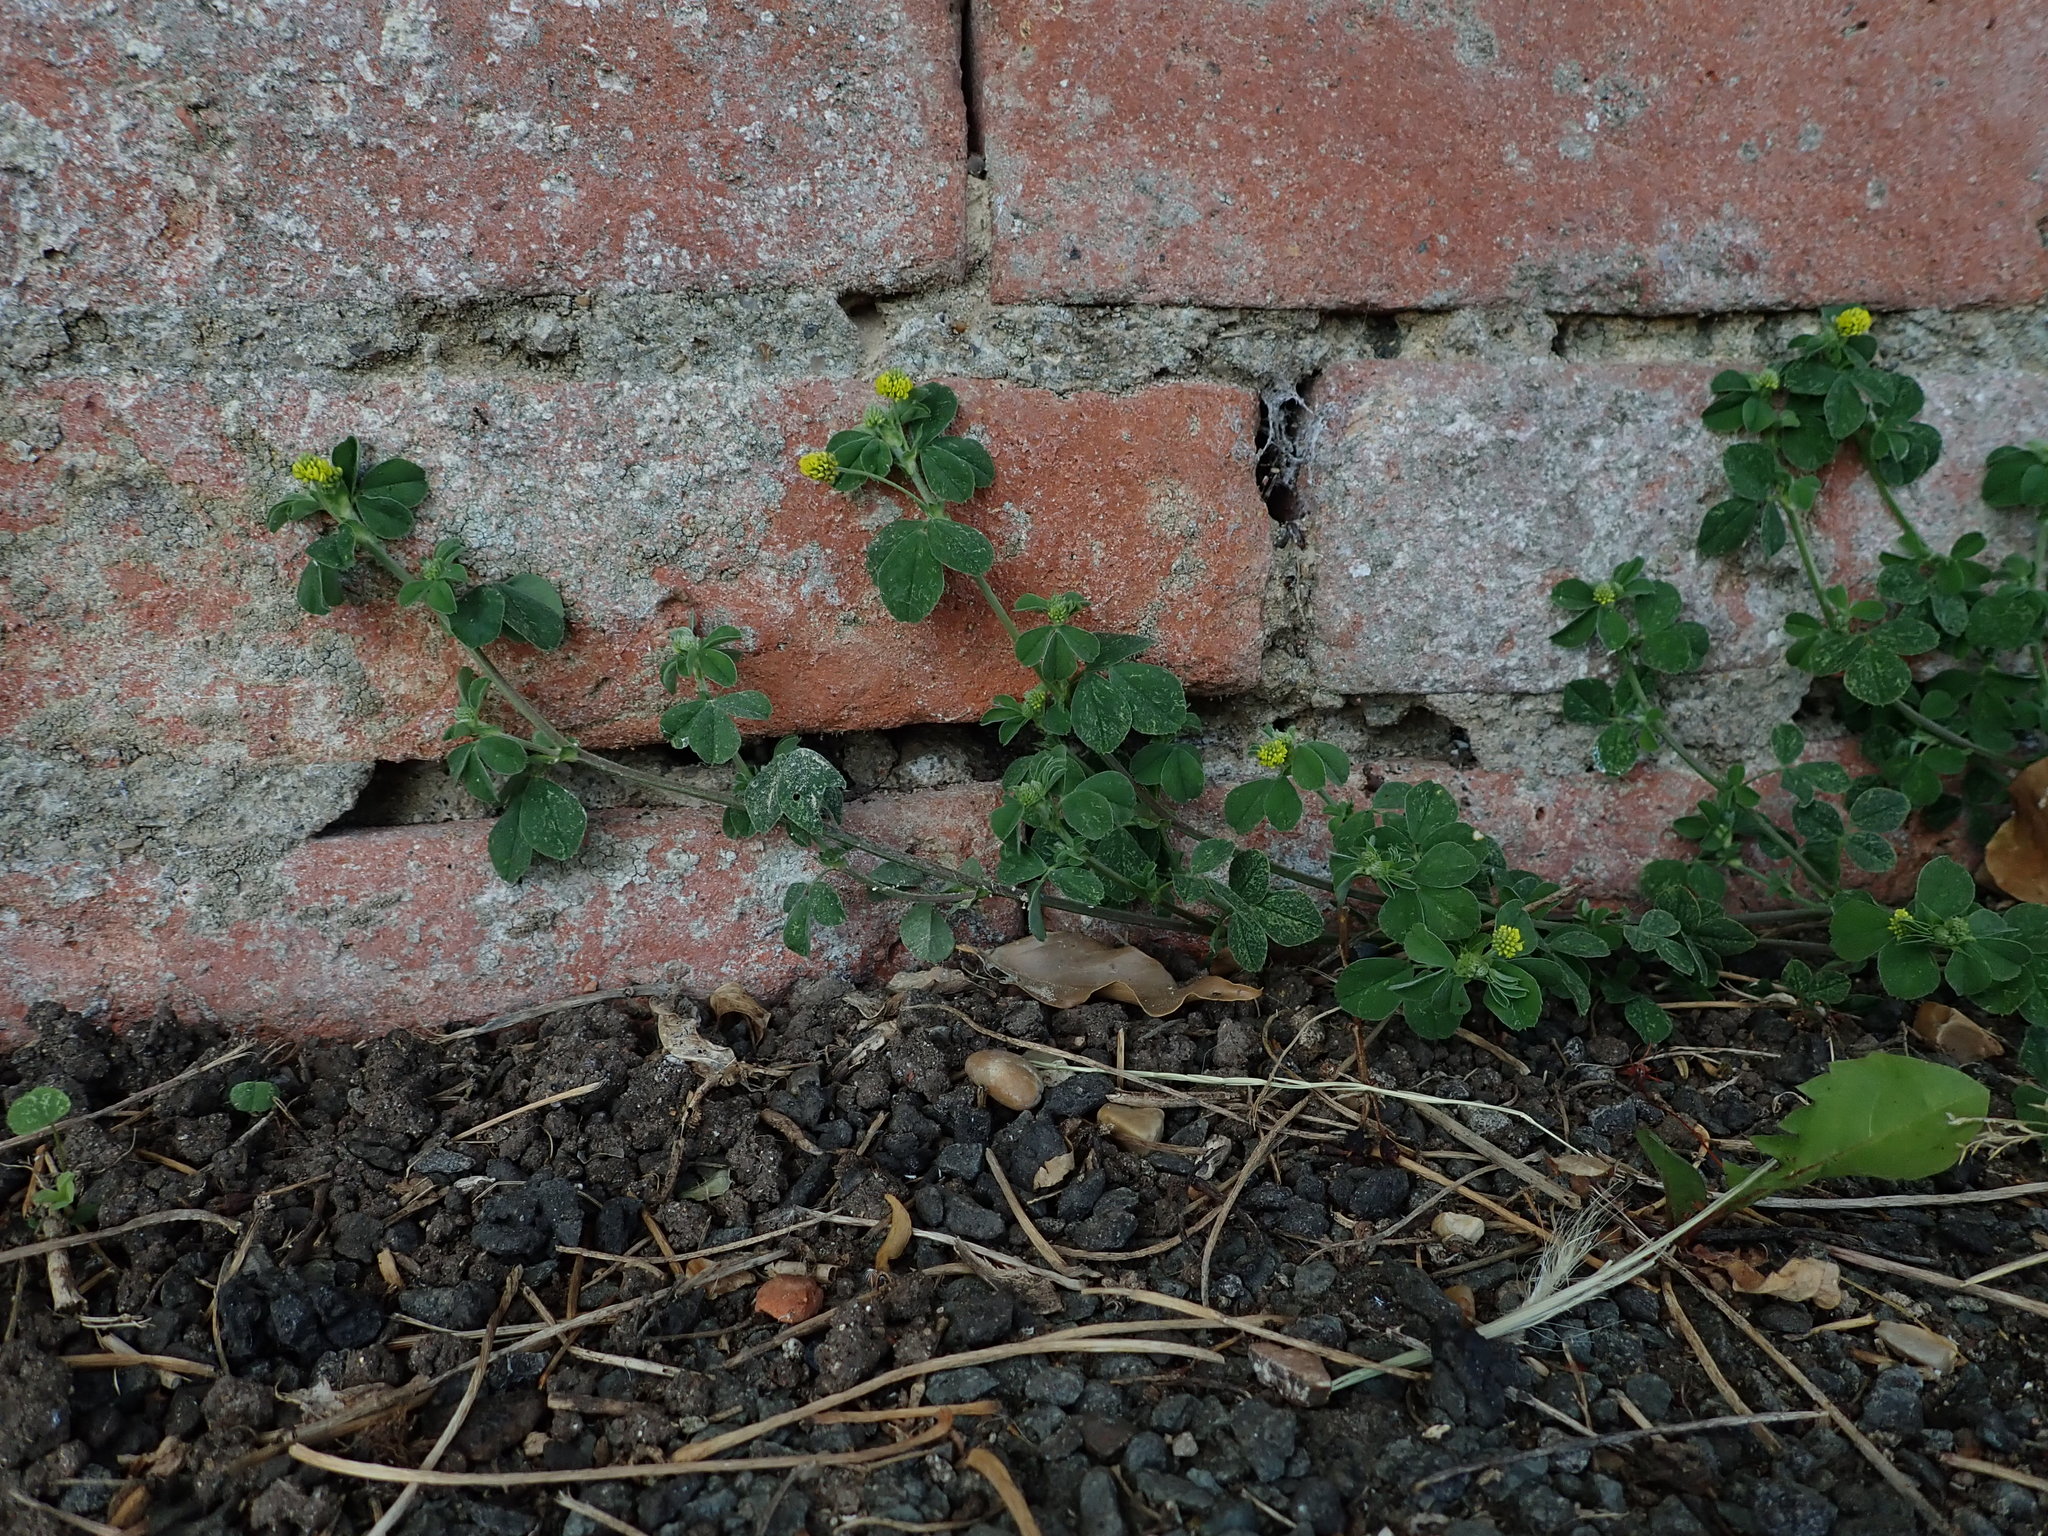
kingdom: Plantae
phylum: Tracheophyta
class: Magnoliopsida
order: Fabales
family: Fabaceae
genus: Medicago
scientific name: Medicago lupulina
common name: Black medick
